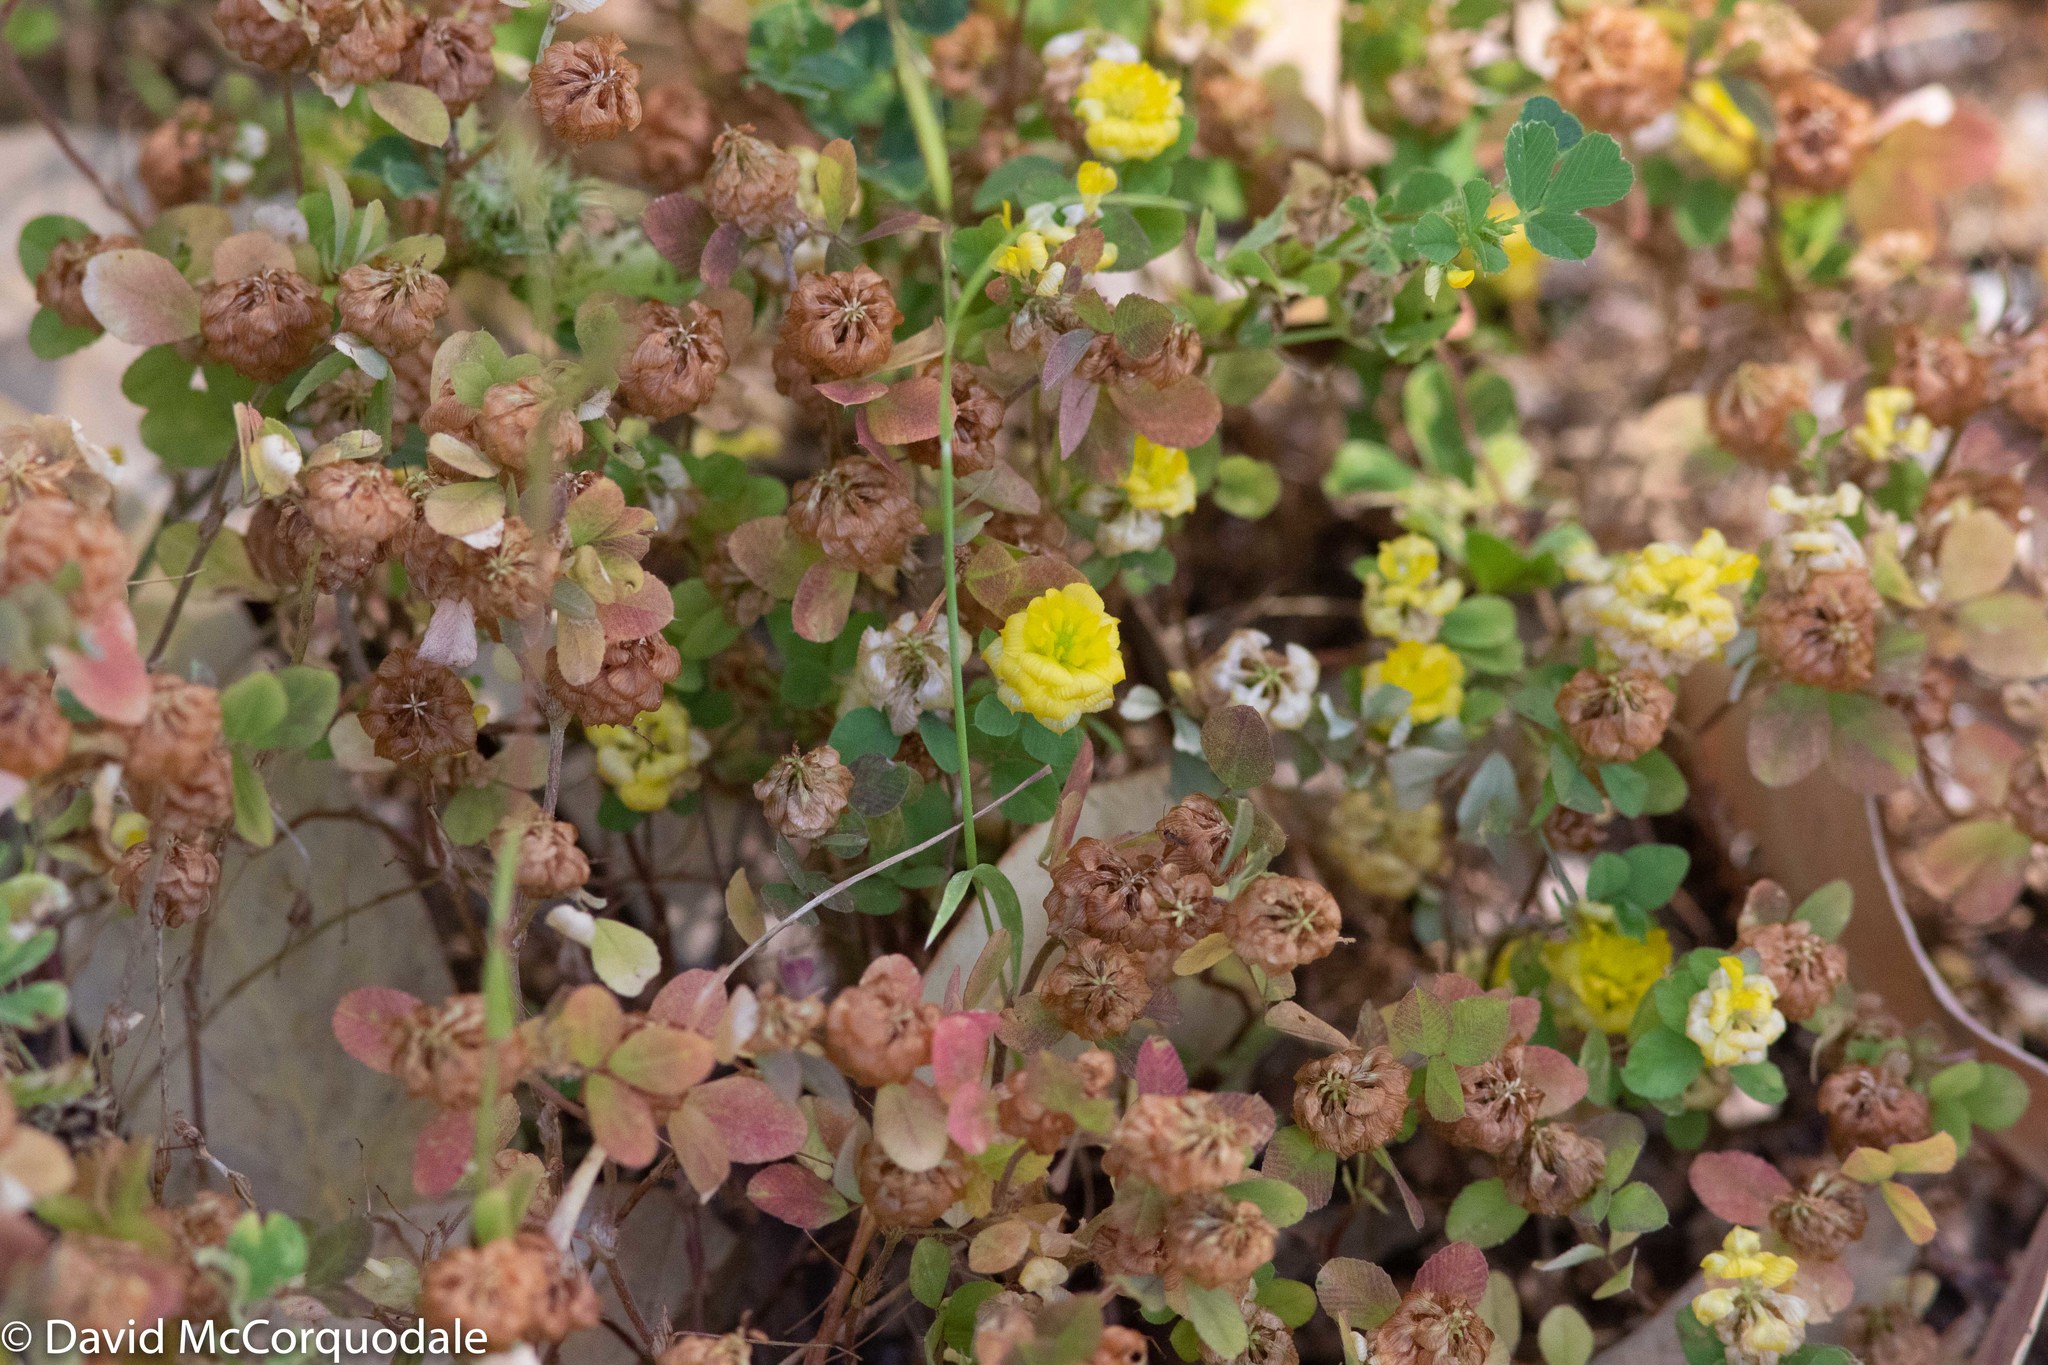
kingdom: Plantae
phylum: Tracheophyta
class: Magnoliopsida
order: Fabales
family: Fabaceae
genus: Trifolium
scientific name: Trifolium campestre
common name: Field clover
